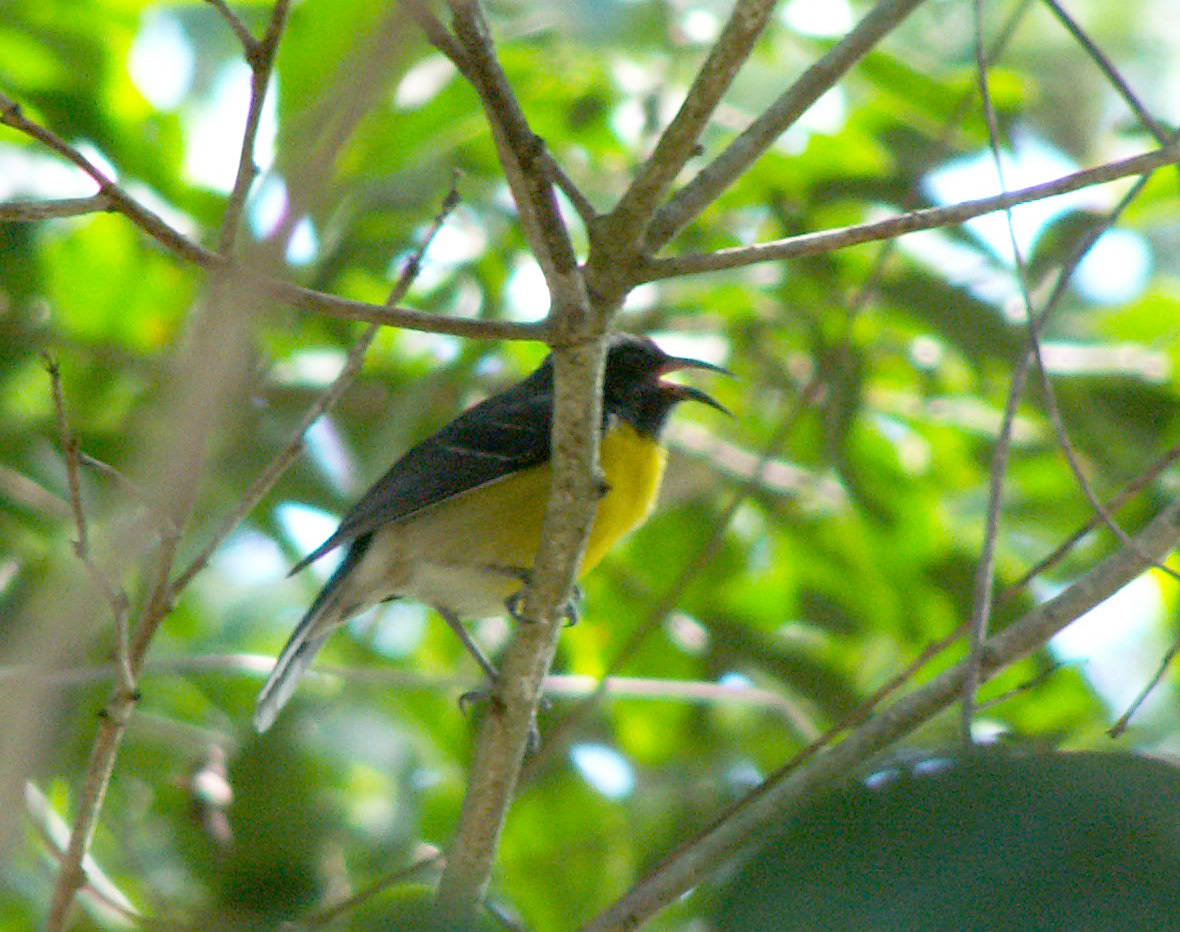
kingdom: Animalia
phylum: Chordata
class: Aves
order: Passeriformes
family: Thraupidae
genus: Coereba
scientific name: Coereba flaveola
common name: Bananaquit
